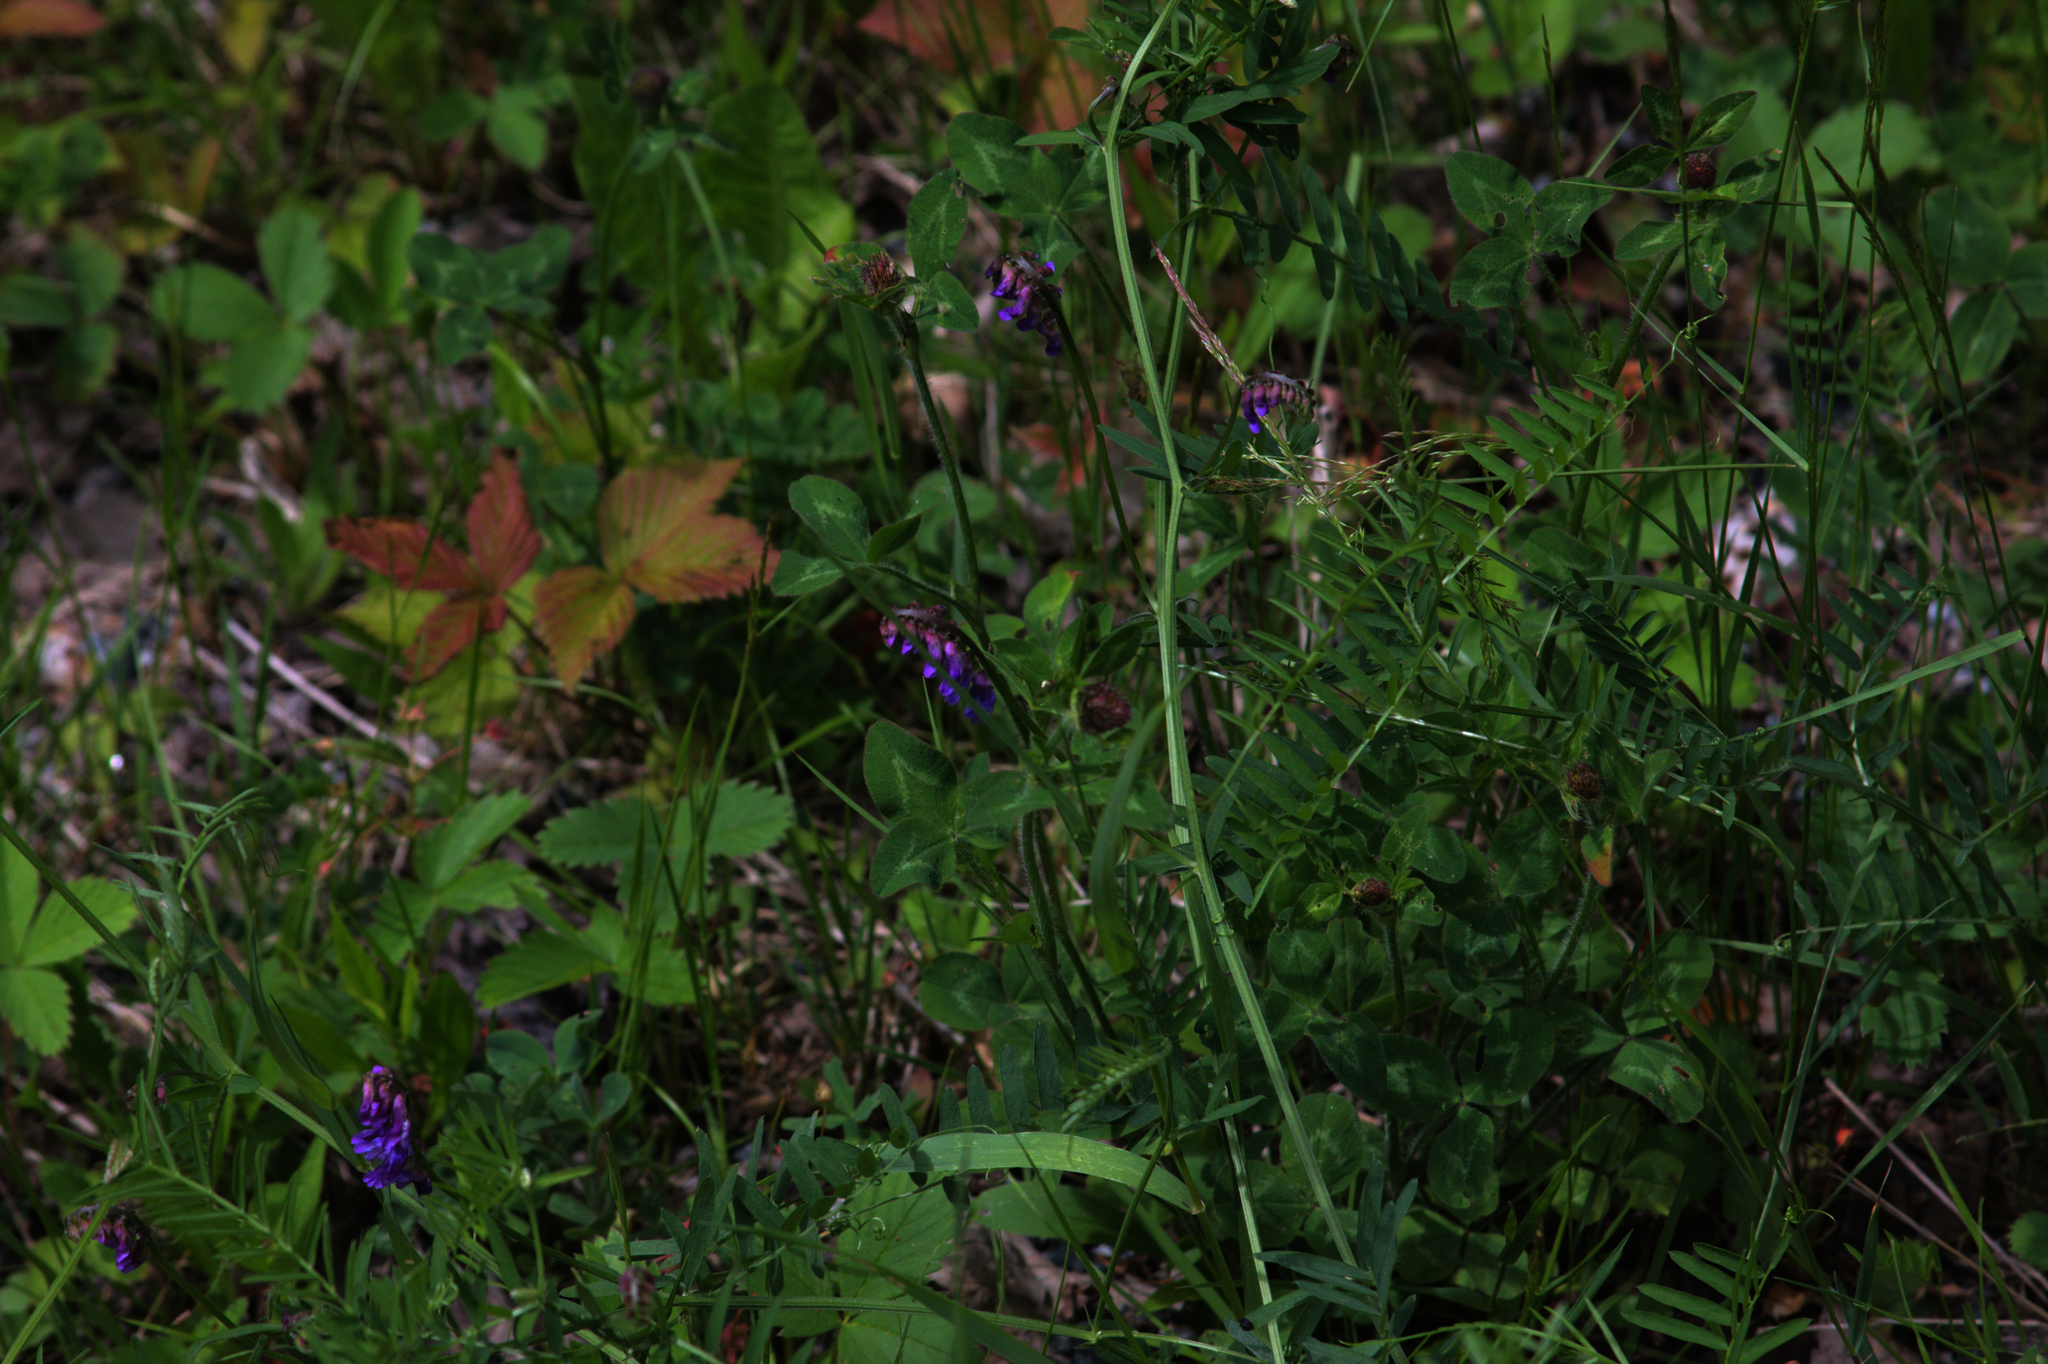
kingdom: Plantae
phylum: Tracheophyta
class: Magnoliopsida
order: Fabales
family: Fabaceae
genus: Vicia
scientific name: Vicia cracca
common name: Bird vetch
